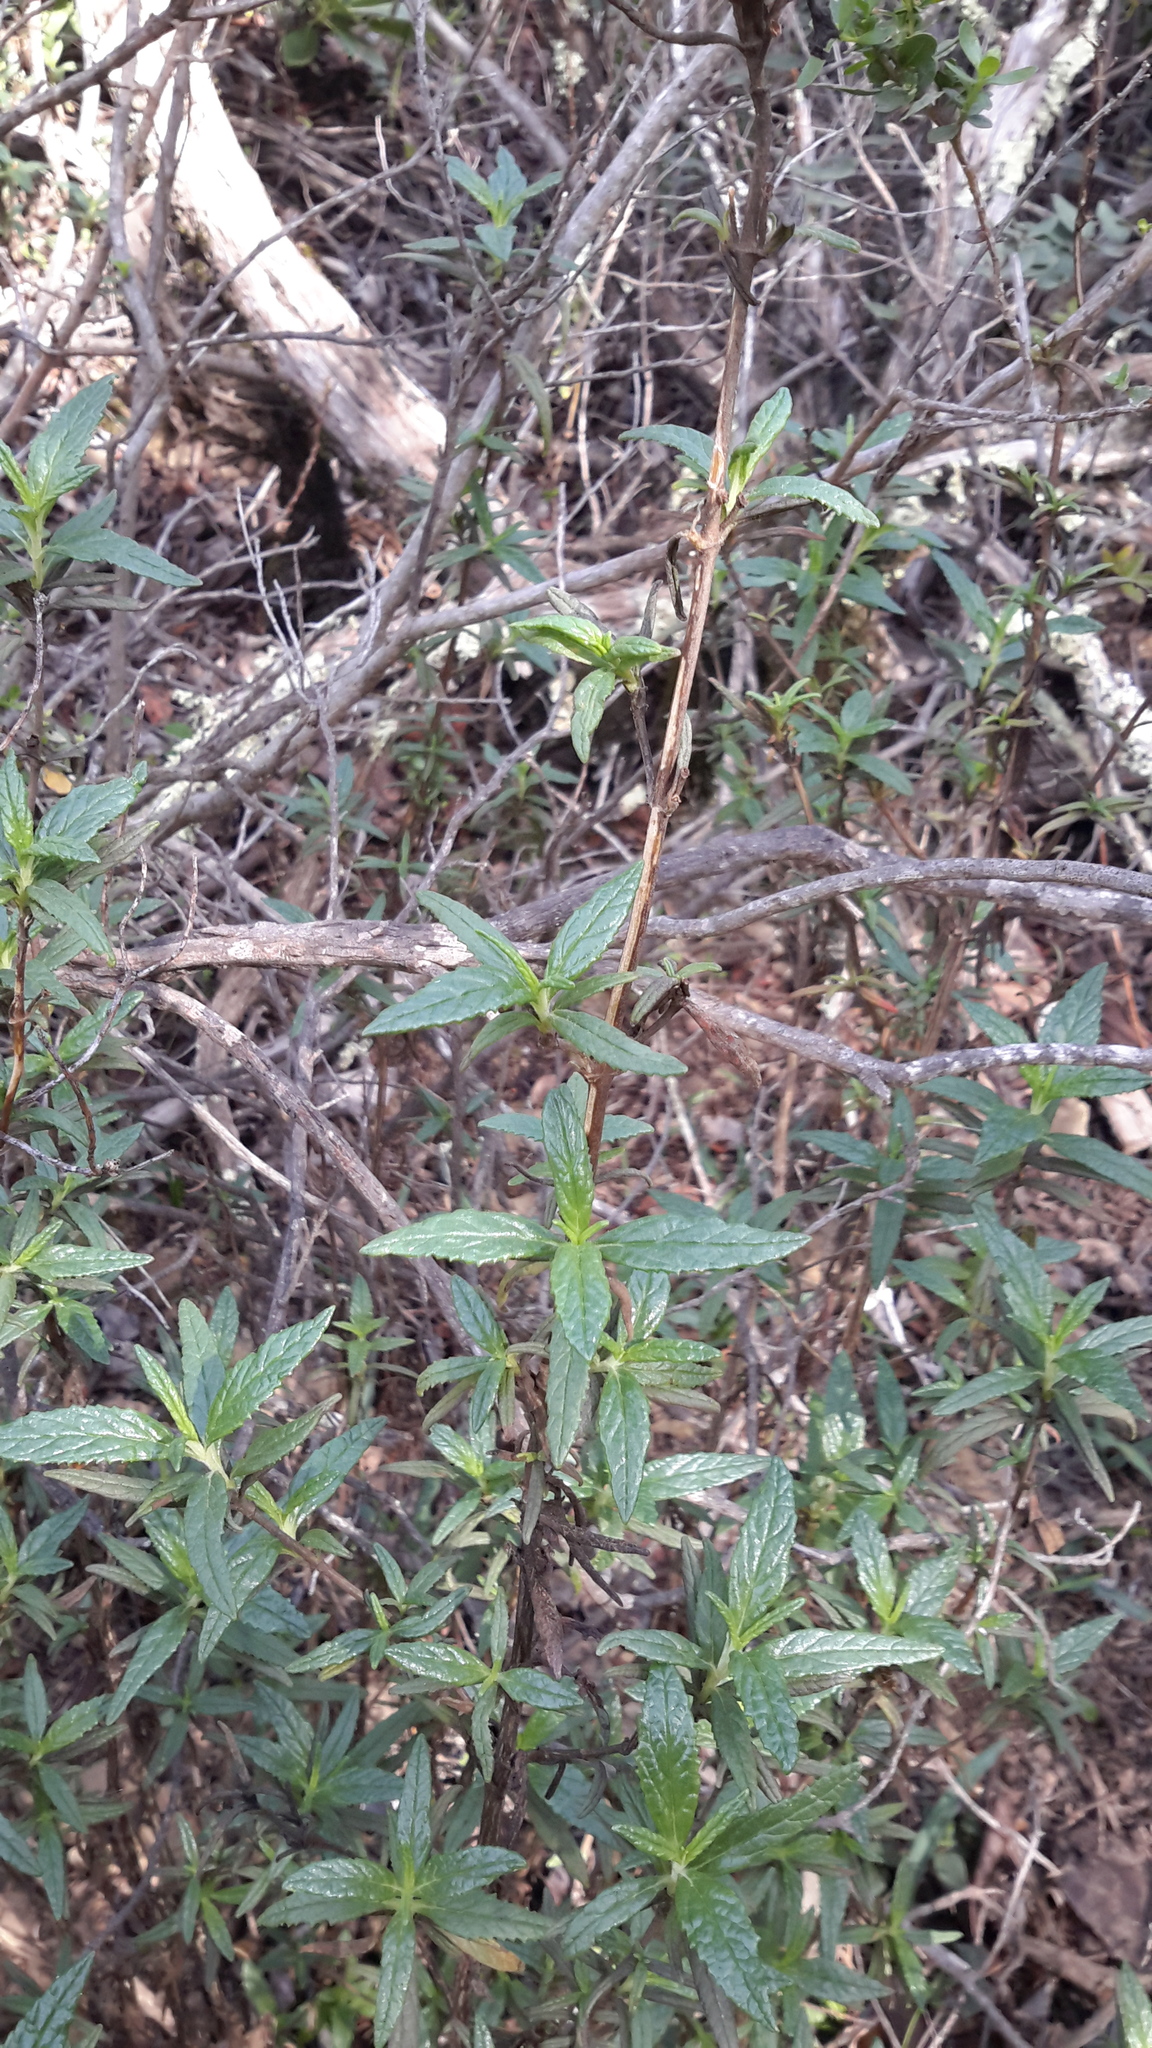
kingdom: Plantae
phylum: Tracheophyta
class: Magnoliopsida
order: Lamiales
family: Phrymaceae
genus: Diplacus
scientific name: Diplacus aurantiacus
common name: Bush monkey-flower
